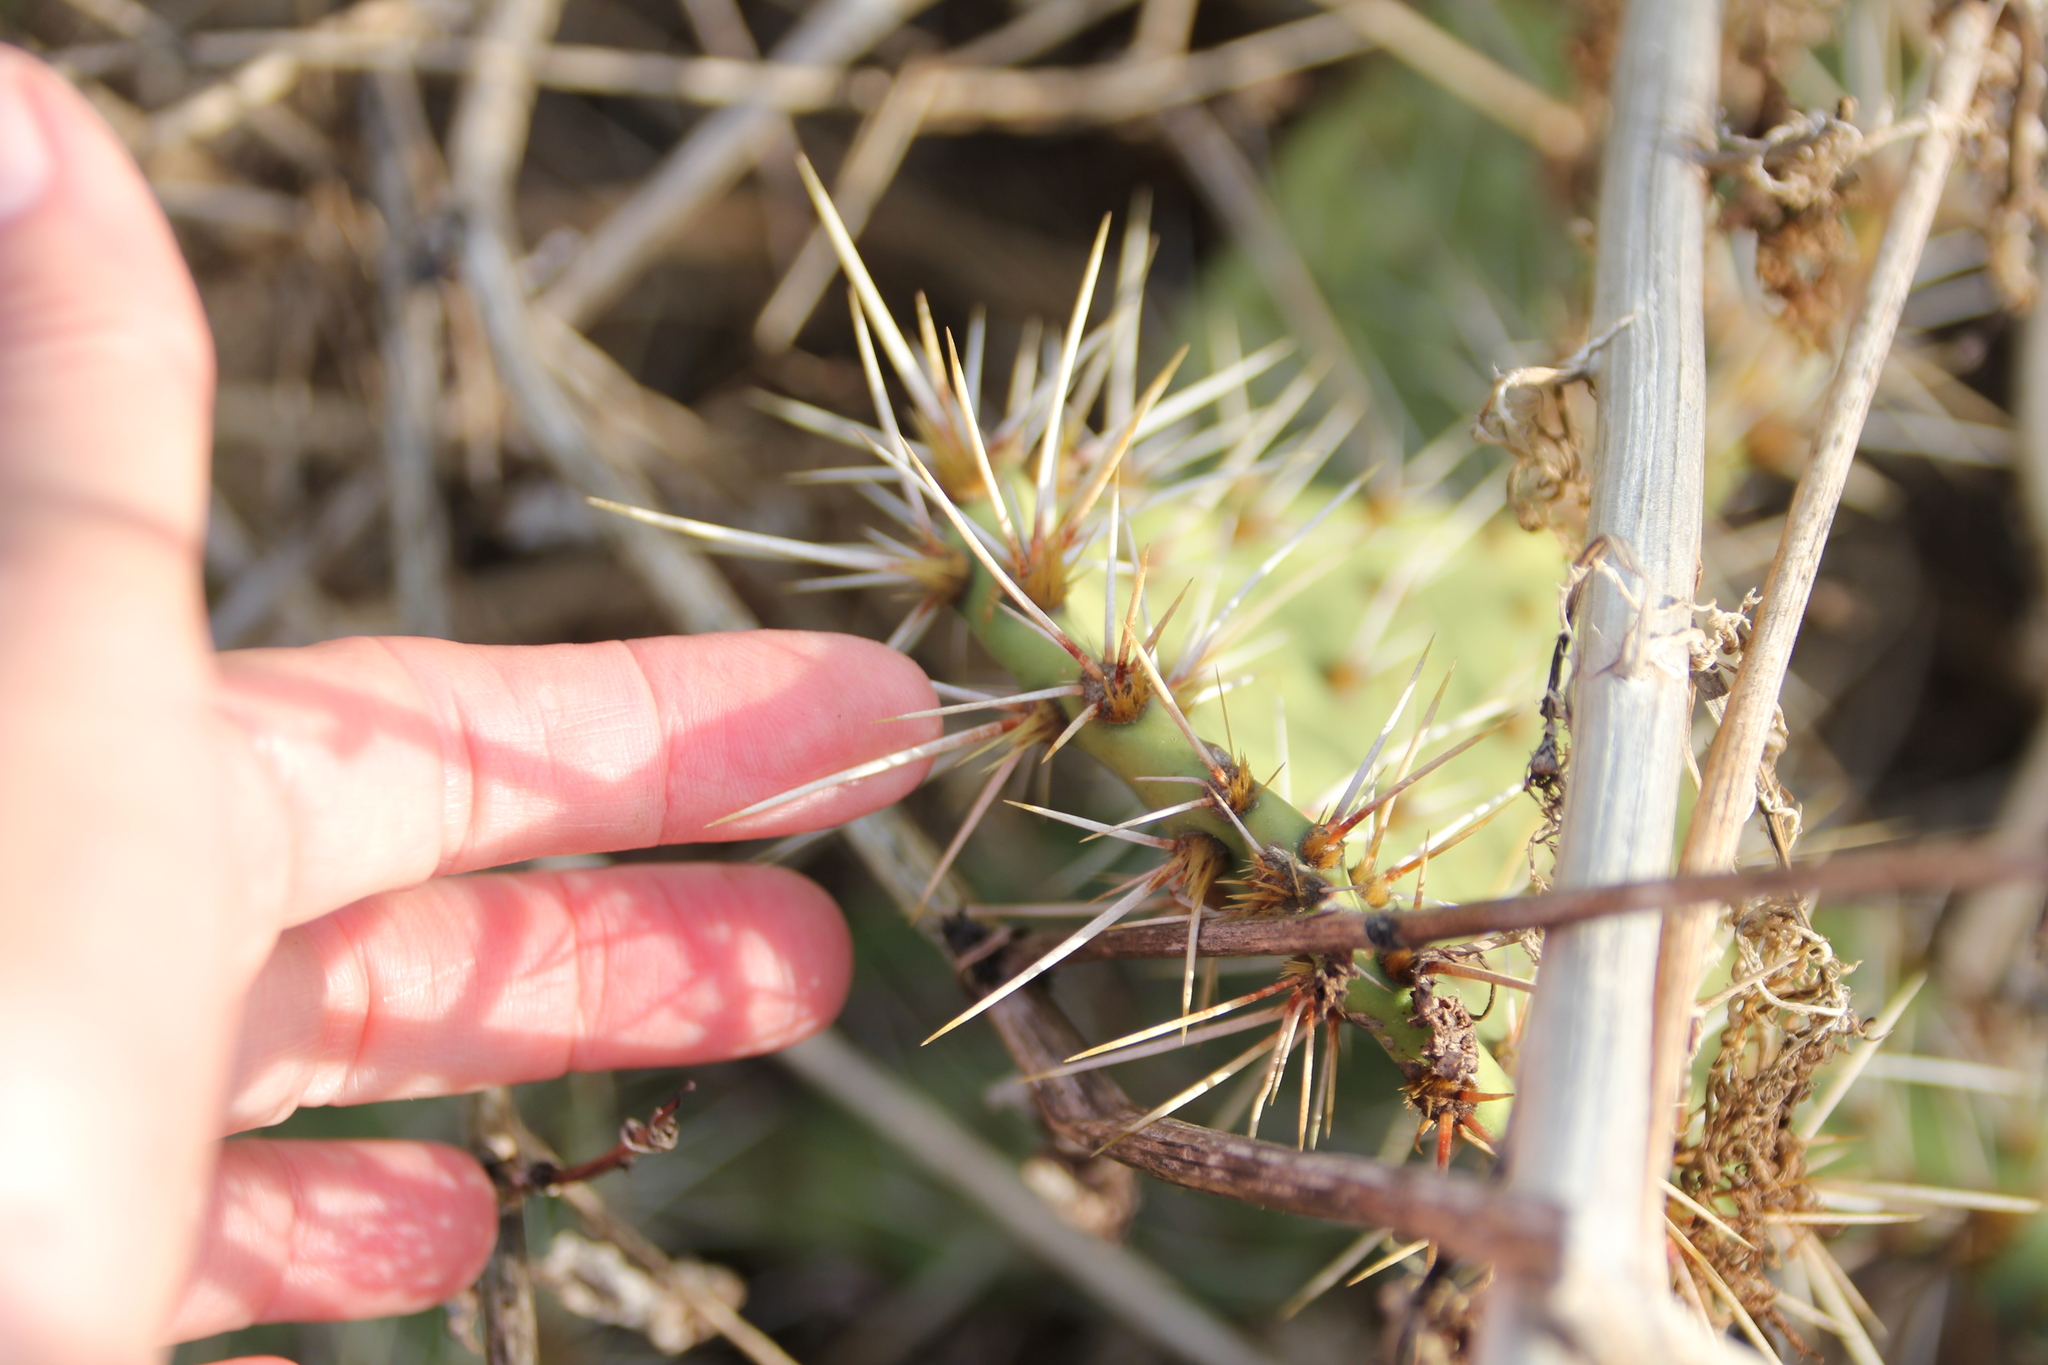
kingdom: Plantae
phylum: Tracheophyta
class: Magnoliopsida
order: Caryophyllales
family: Cactaceae
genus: Opuntia
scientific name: Opuntia littoralis
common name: Coastal prickly-pear
